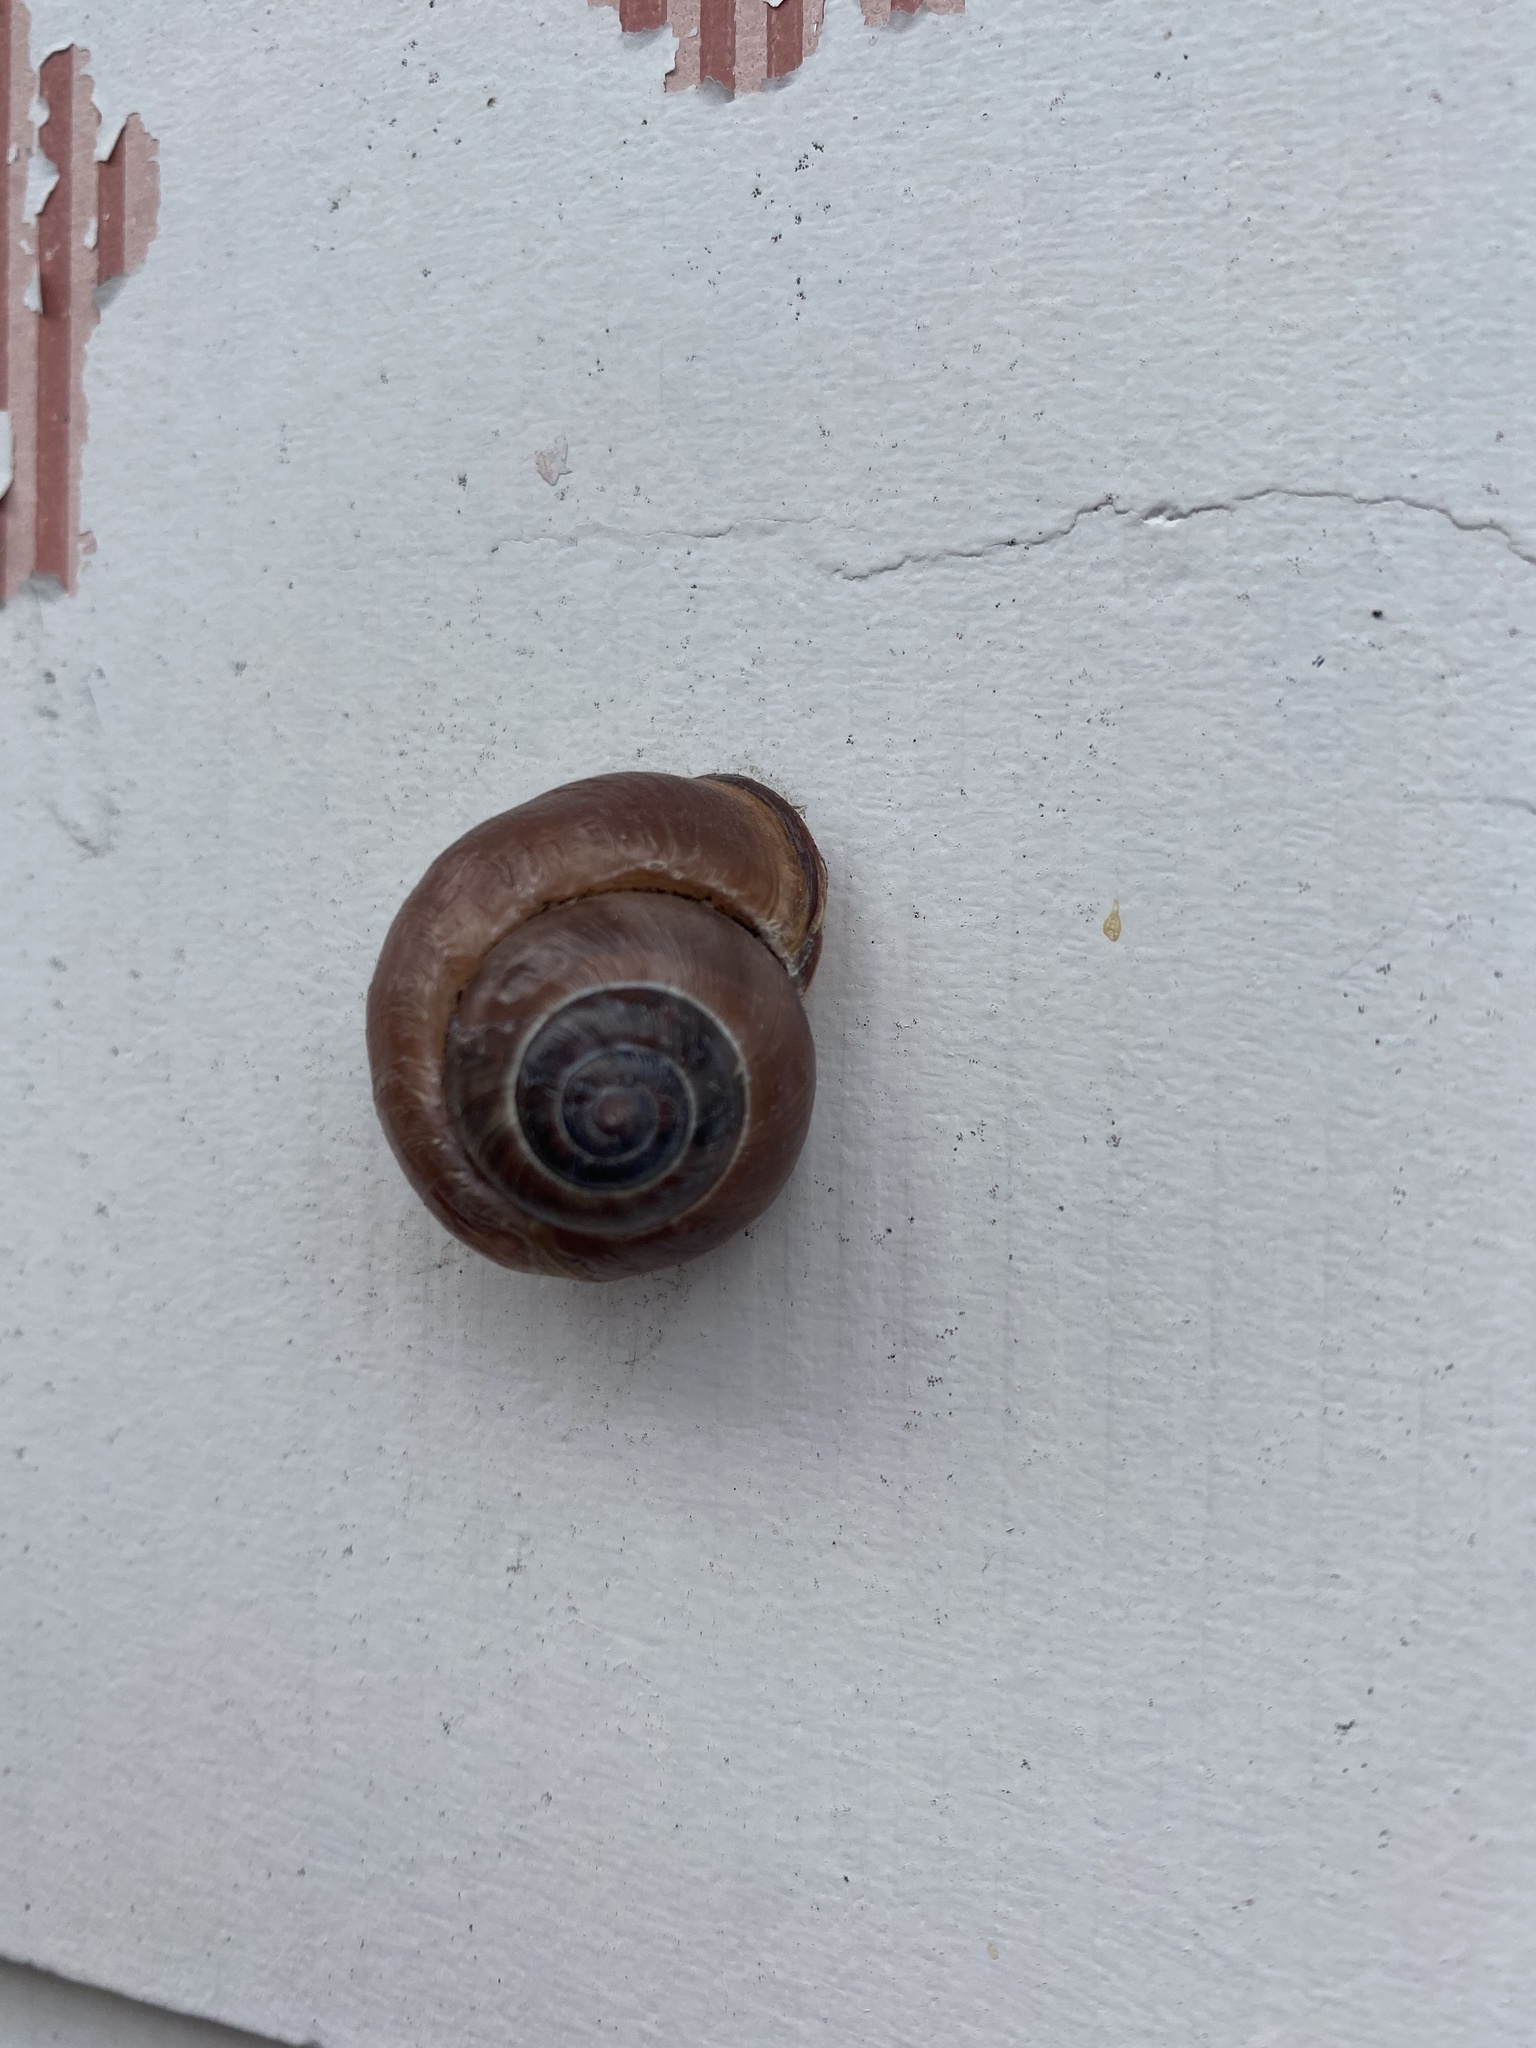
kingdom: Animalia
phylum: Mollusca
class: Gastropoda
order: Stylommatophora
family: Helicidae
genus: Cepaea
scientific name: Cepaea nemoralis
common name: Grovesnail
